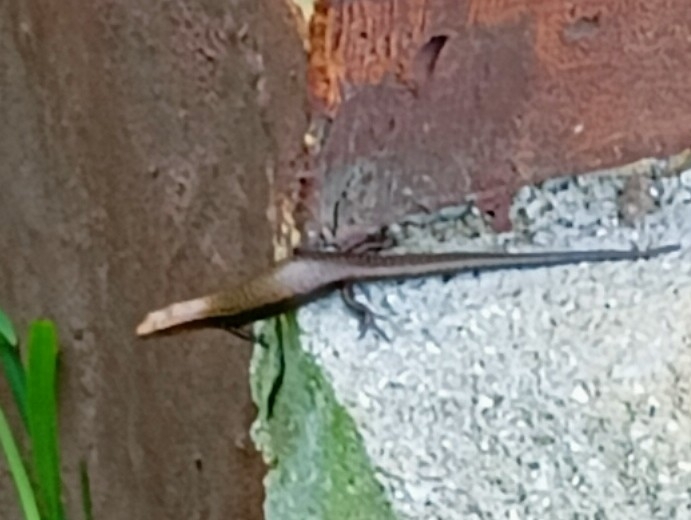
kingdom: Animalia
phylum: Chordata
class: Squamata
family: Scincidae
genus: Caledoniscincus
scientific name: Caledoniscincus atropunctatus
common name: Speckled litter skink
